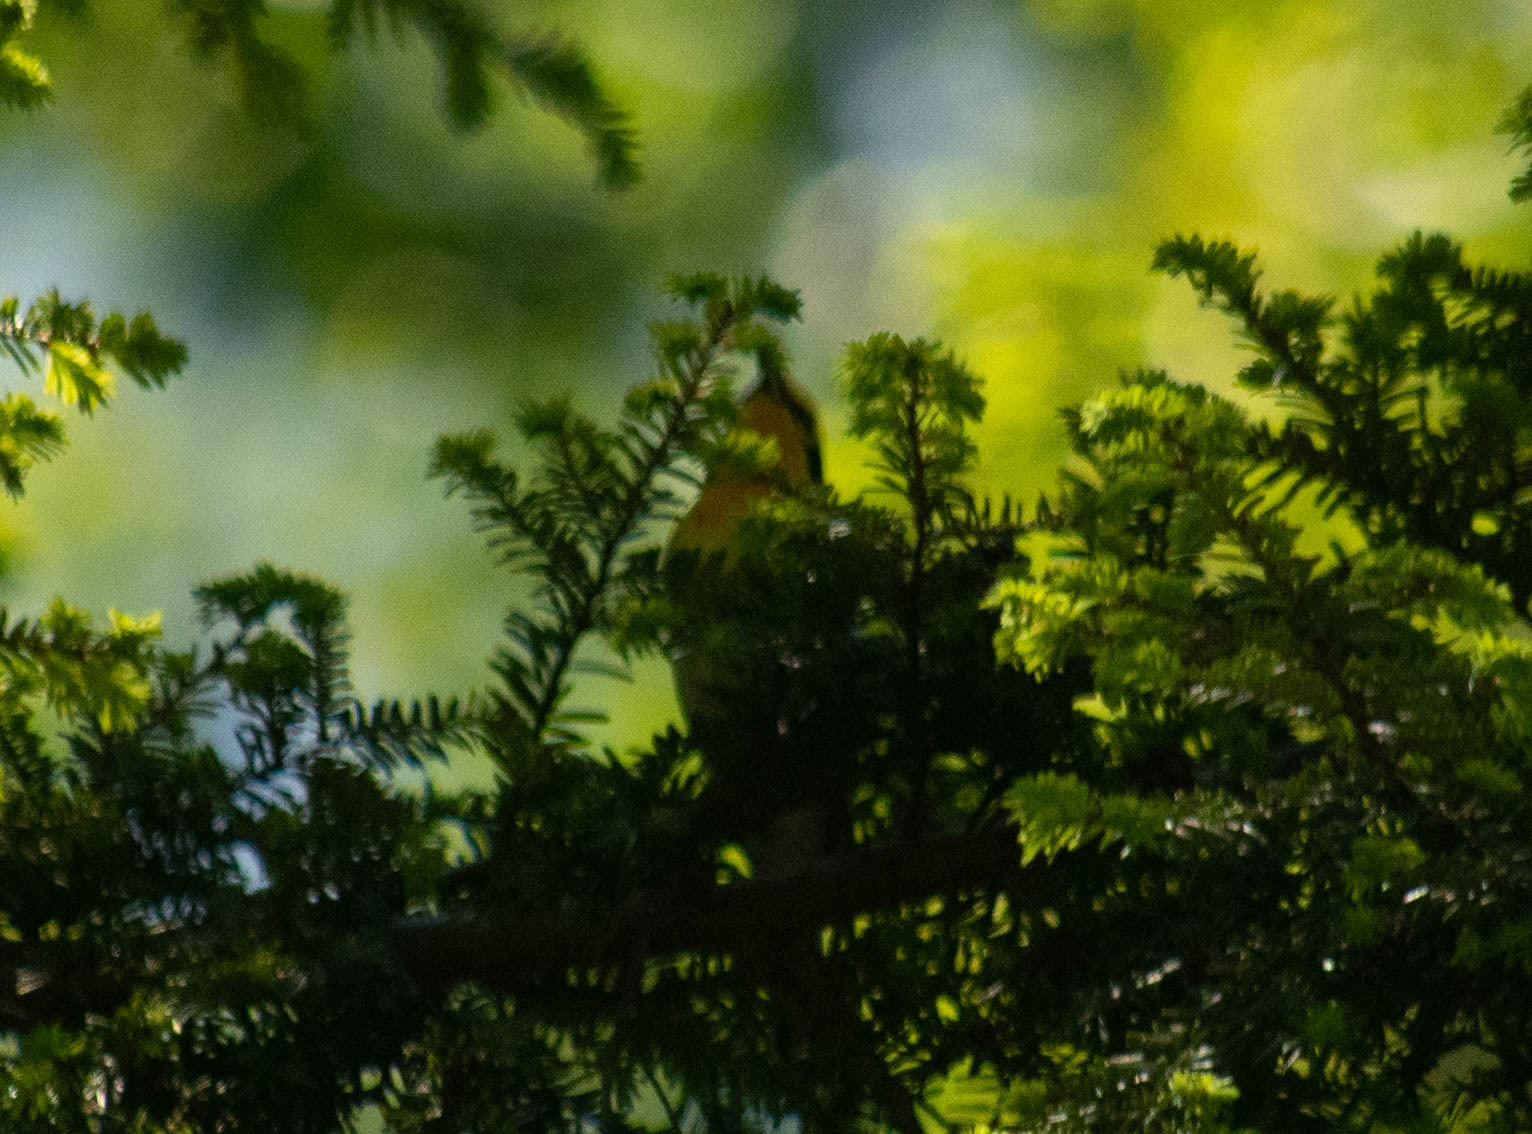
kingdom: Animalia
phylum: Chordata
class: Aves
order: Passeriformes
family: Parulidae
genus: Setophaga
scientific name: Setophaga fusca
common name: Blackburnian warbler
